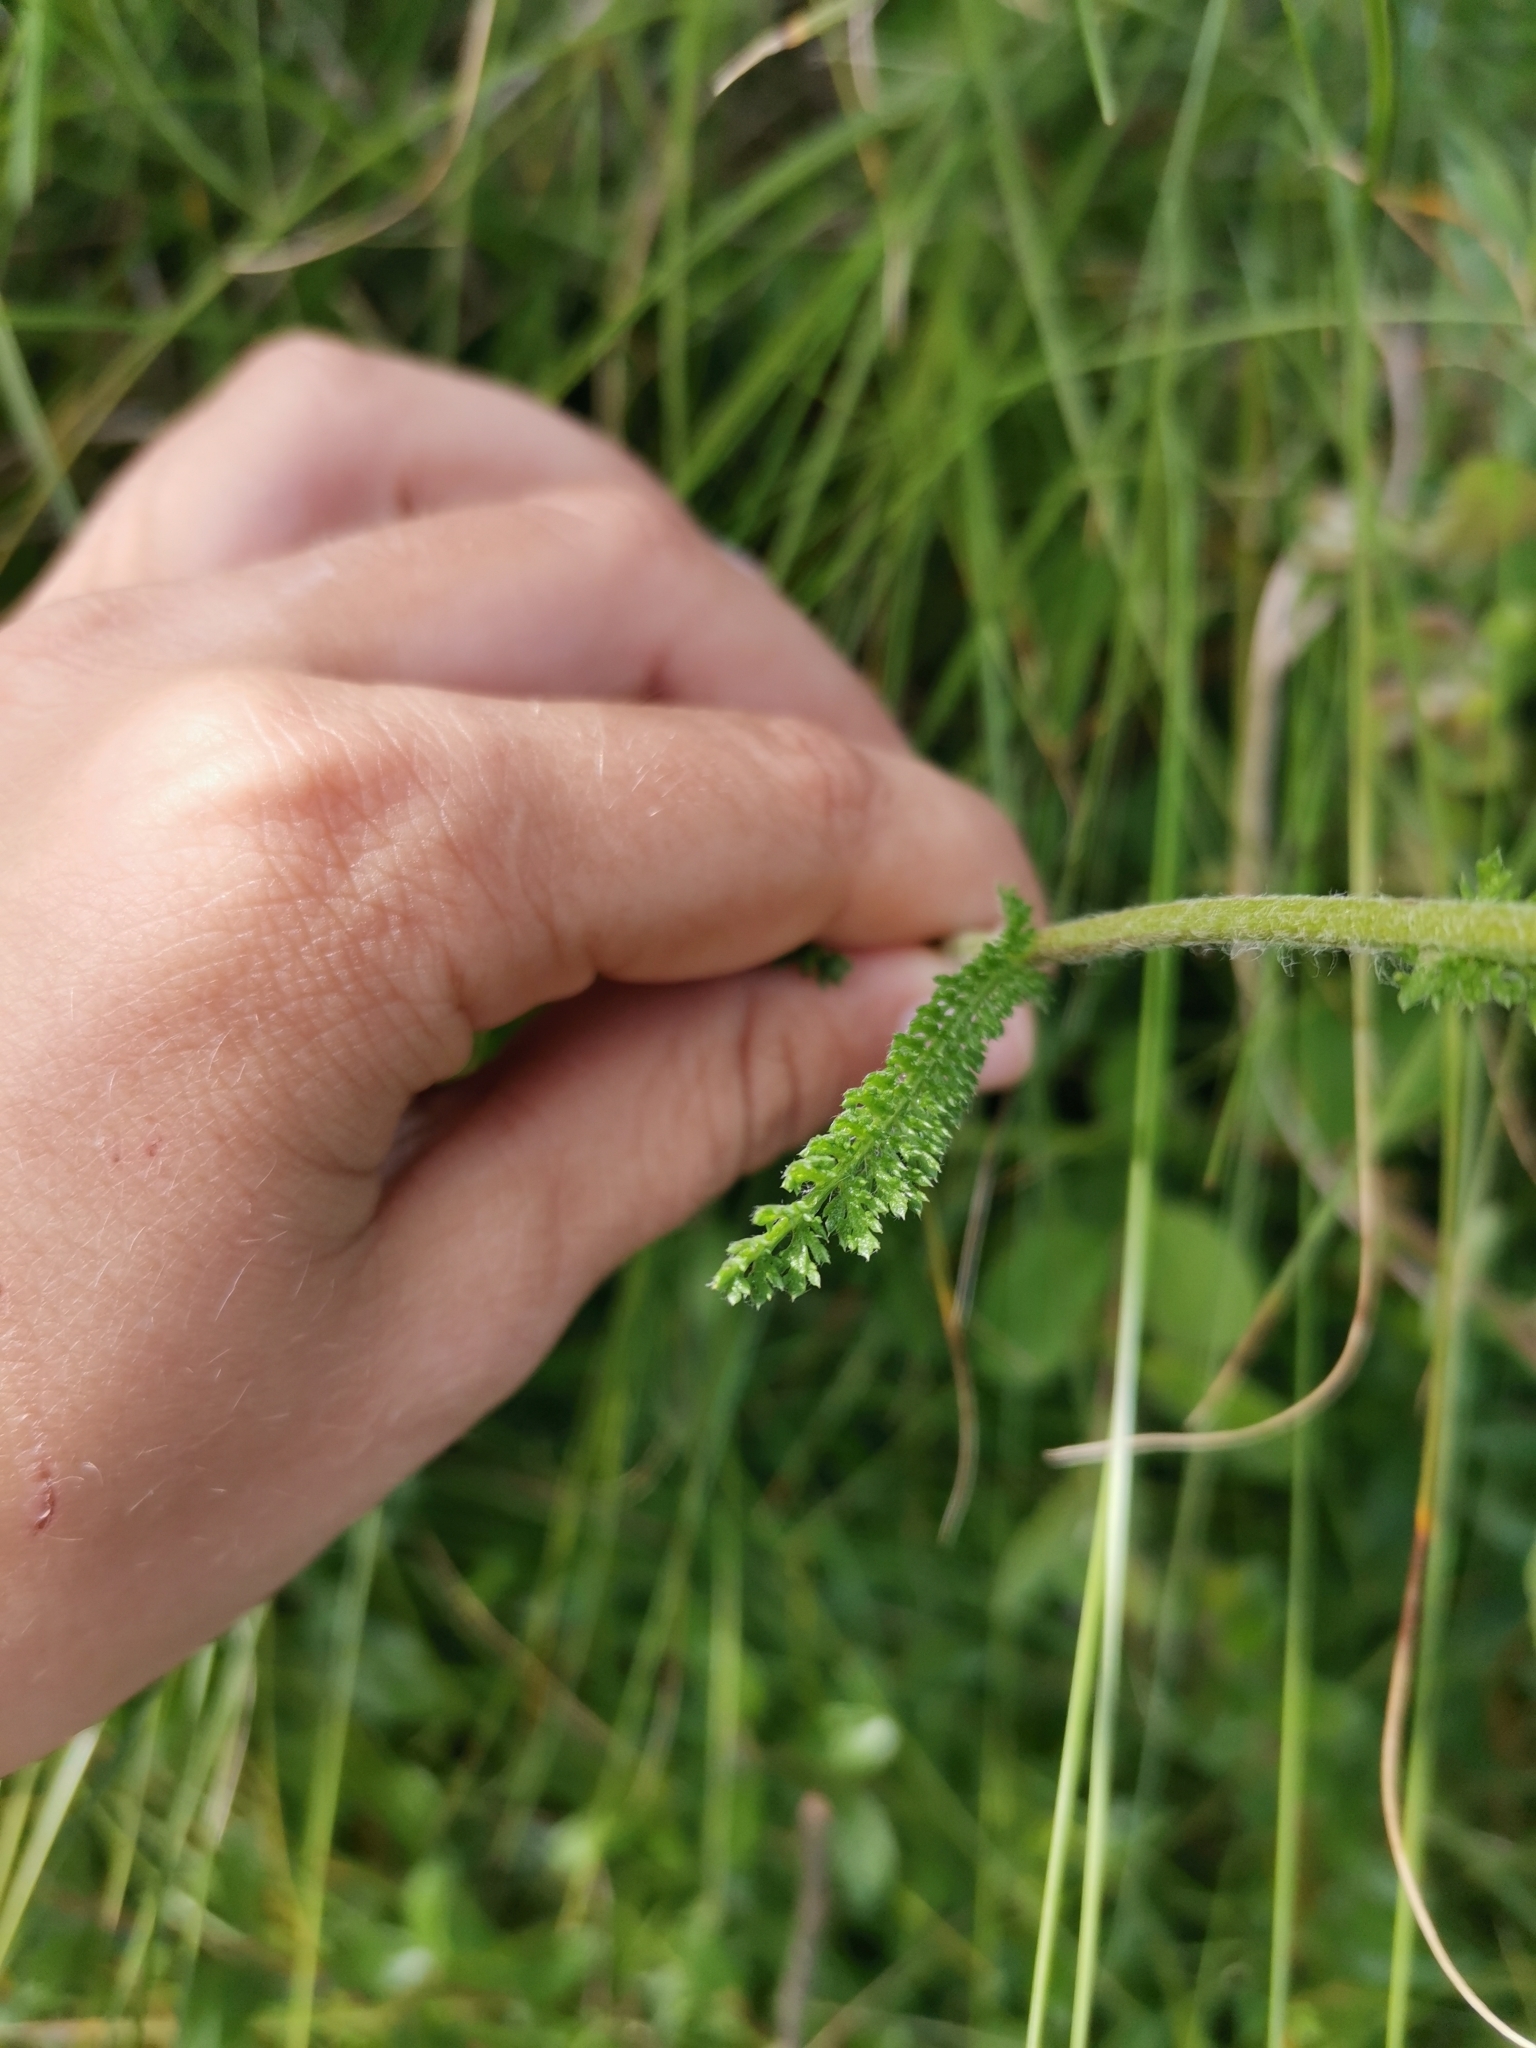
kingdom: Plantae
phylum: Tracheophyta
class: Magnoliopsida
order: Asterales
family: Asteraceae
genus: Achillea
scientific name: Achillea millefolium
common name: Yarrow
